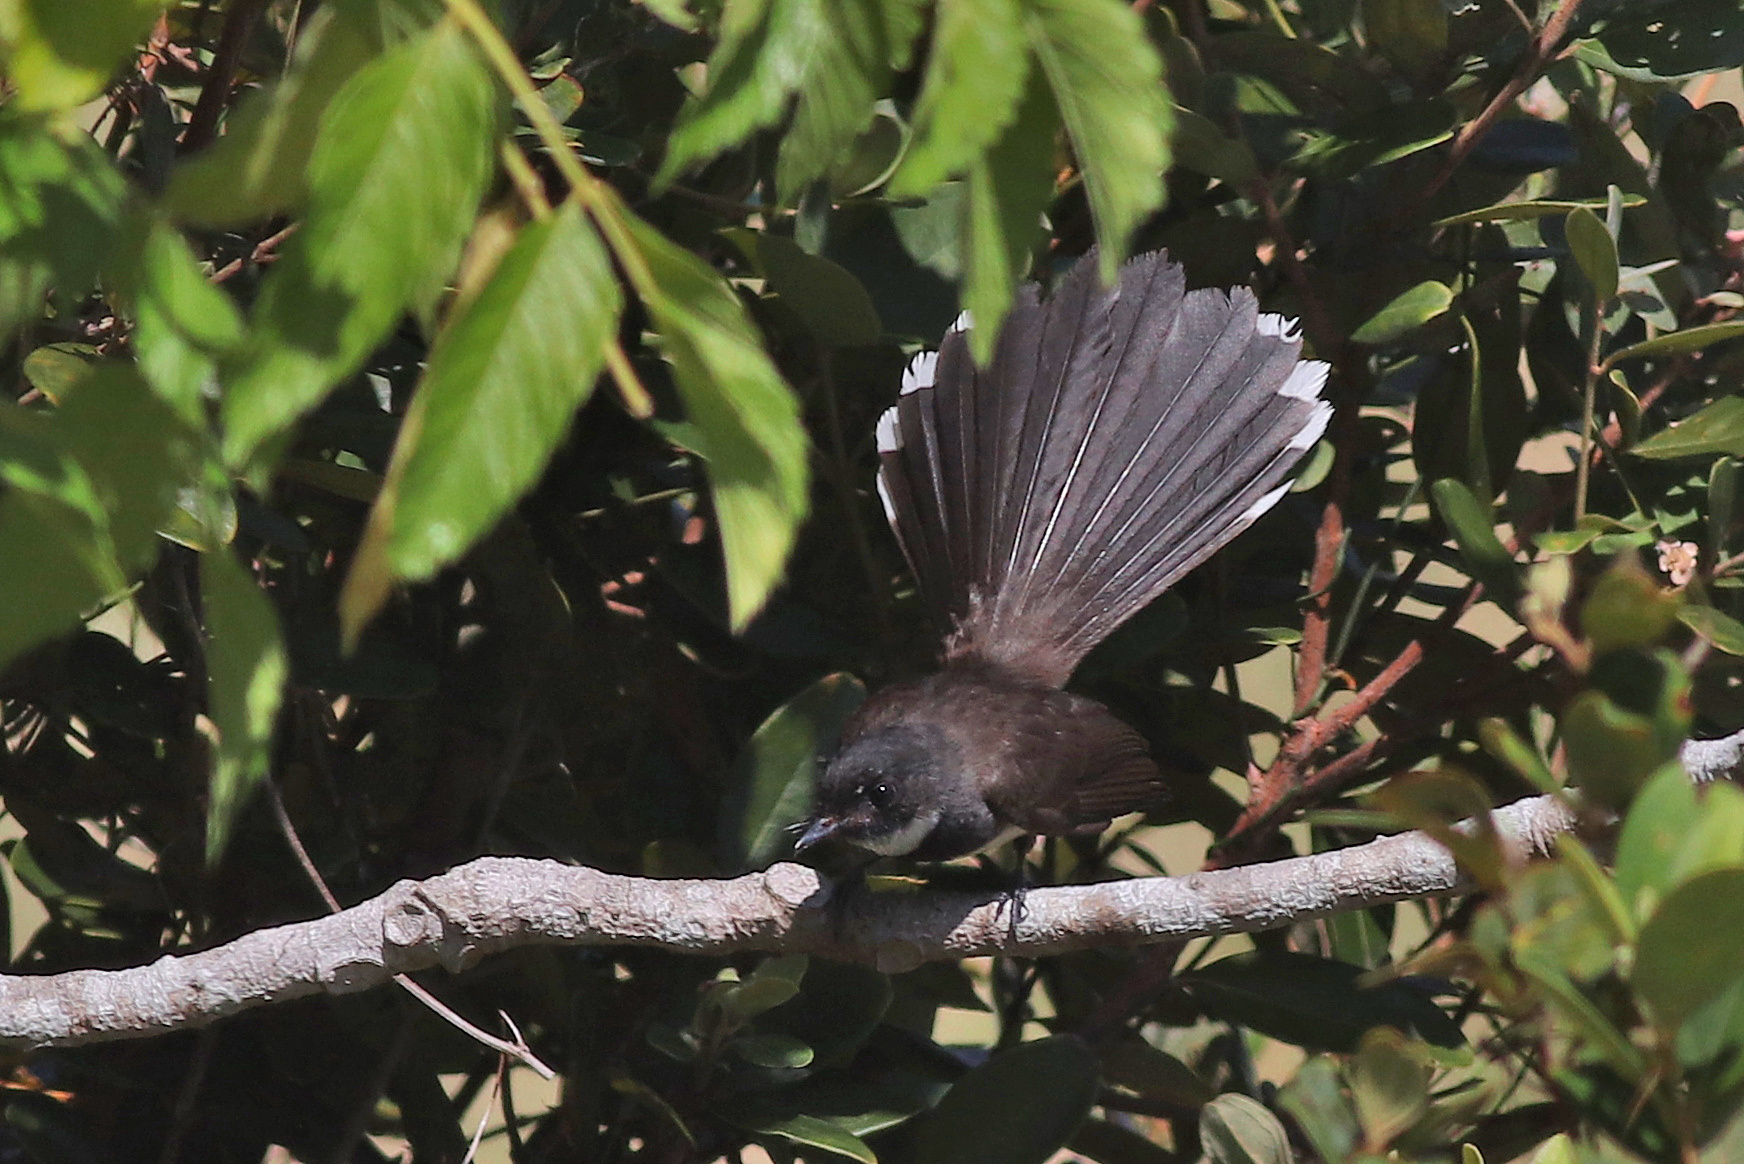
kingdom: Animalia
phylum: Chordata
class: Aves
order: Passeriformes
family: Rhipiduridae
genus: Rhipidura
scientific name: Rhipidura javanica
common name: Pied fantail
